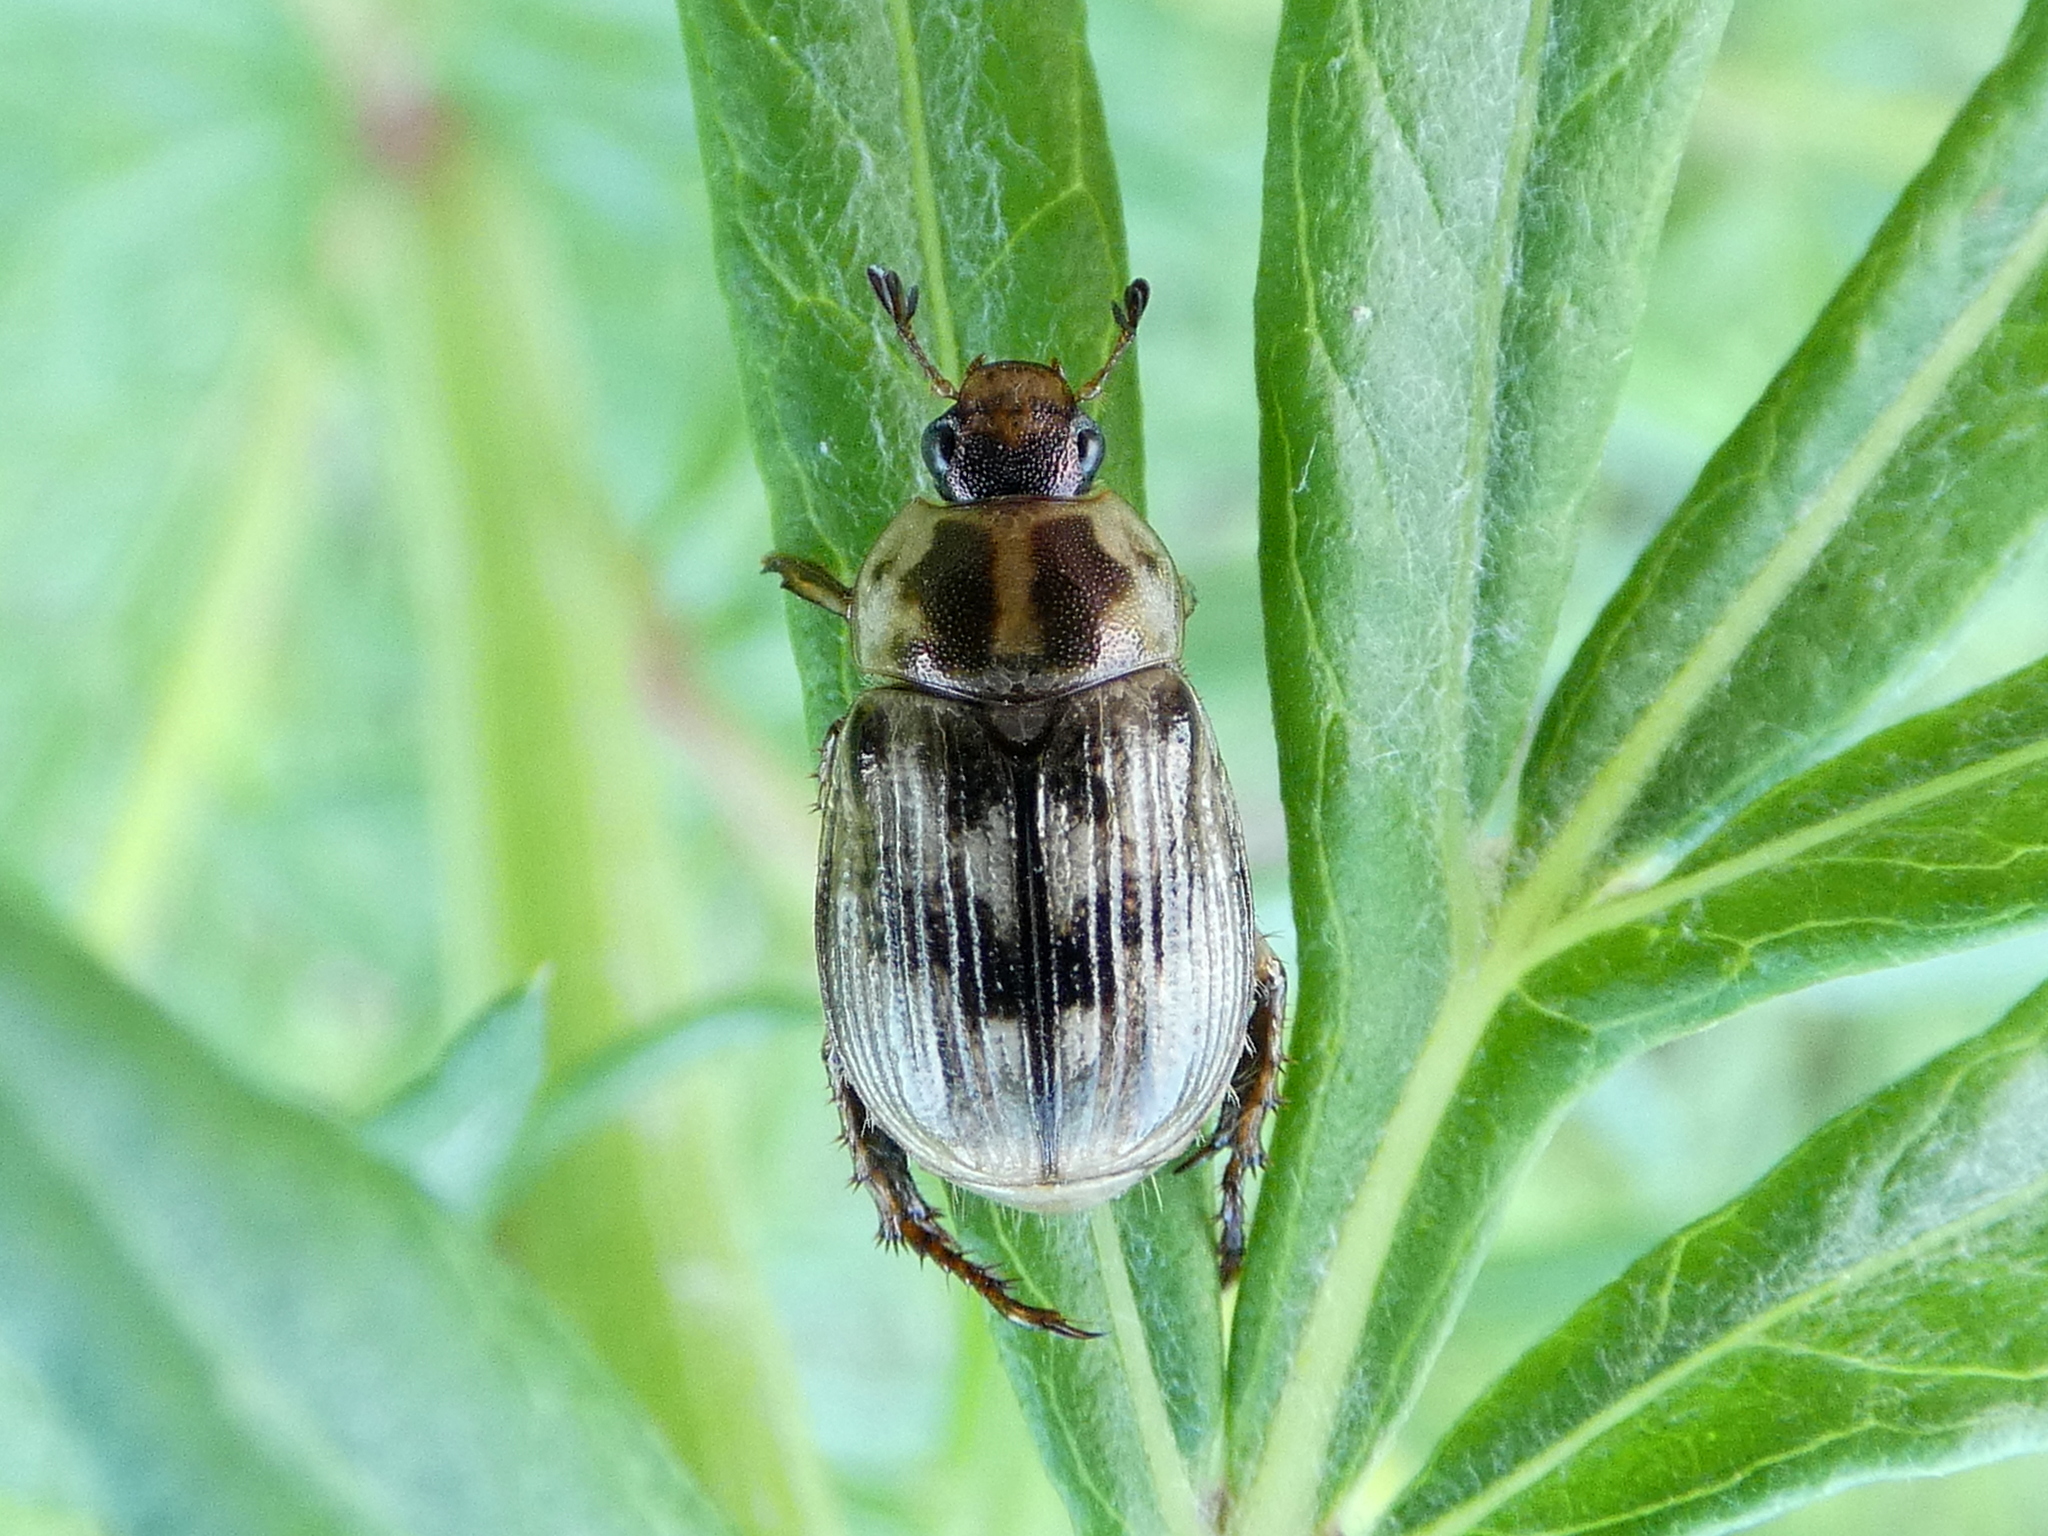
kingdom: Animalia
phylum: Arthropoda
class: Insecta
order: Coleoptera
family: Scarabaeidae
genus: Exomala
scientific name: Exomala orientalis
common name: Oriental beetle
